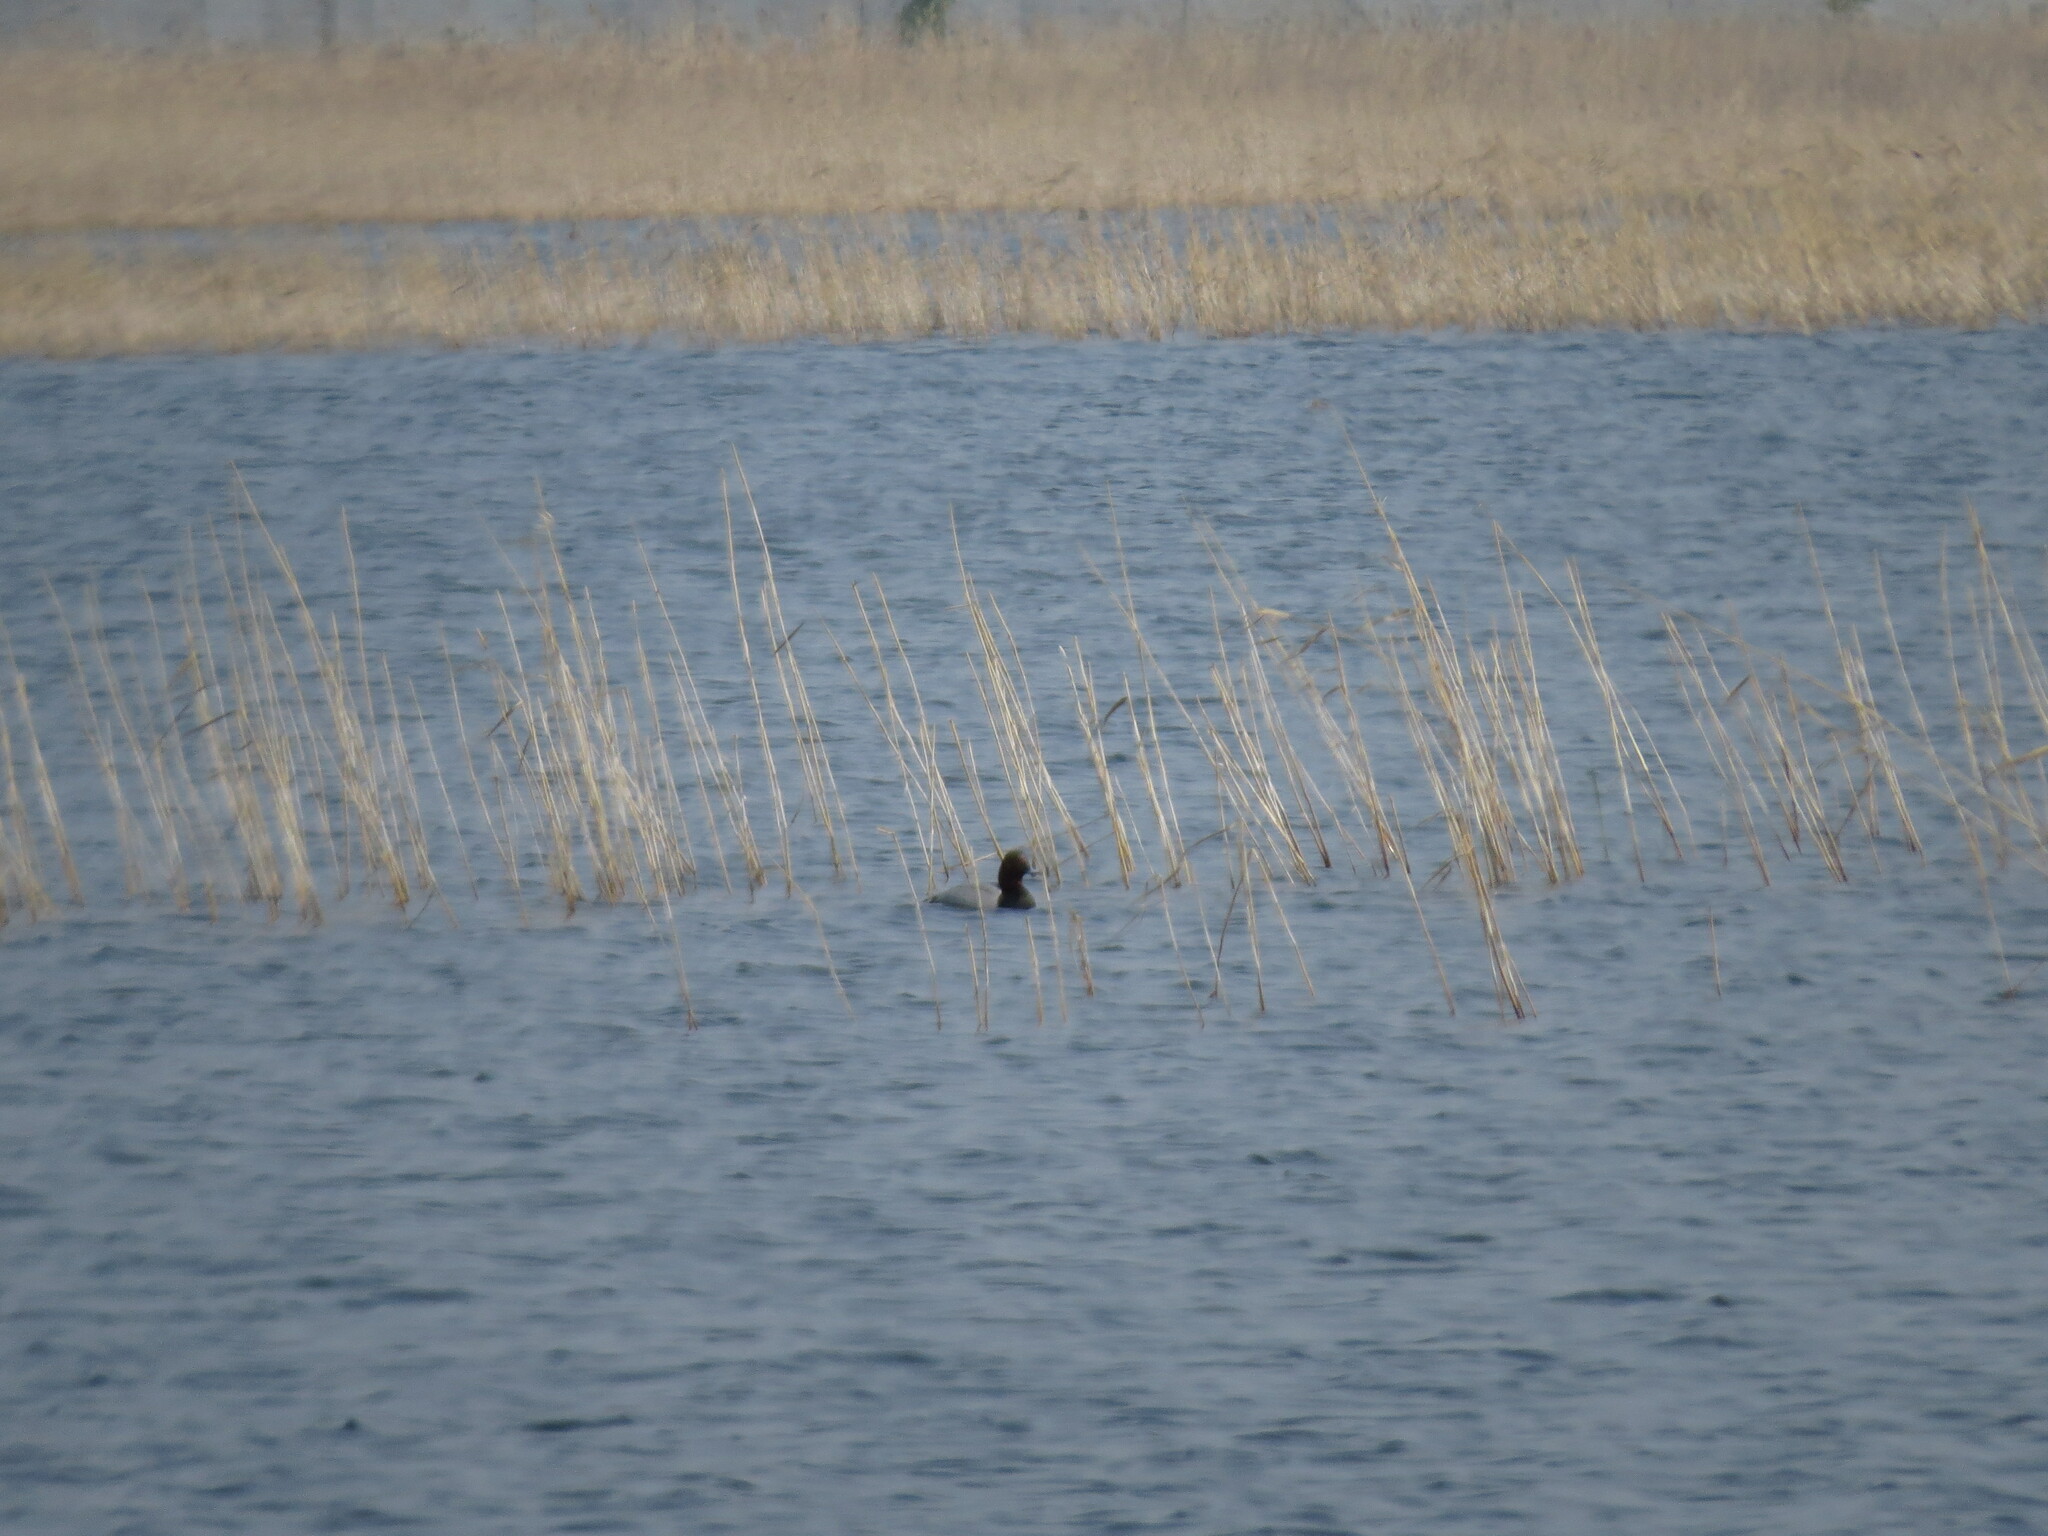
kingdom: Animalia
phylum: Chordata
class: Aves
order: Anseriformes
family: Anatidae
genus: Aythya
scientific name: Aythya ferina
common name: Common pochard
